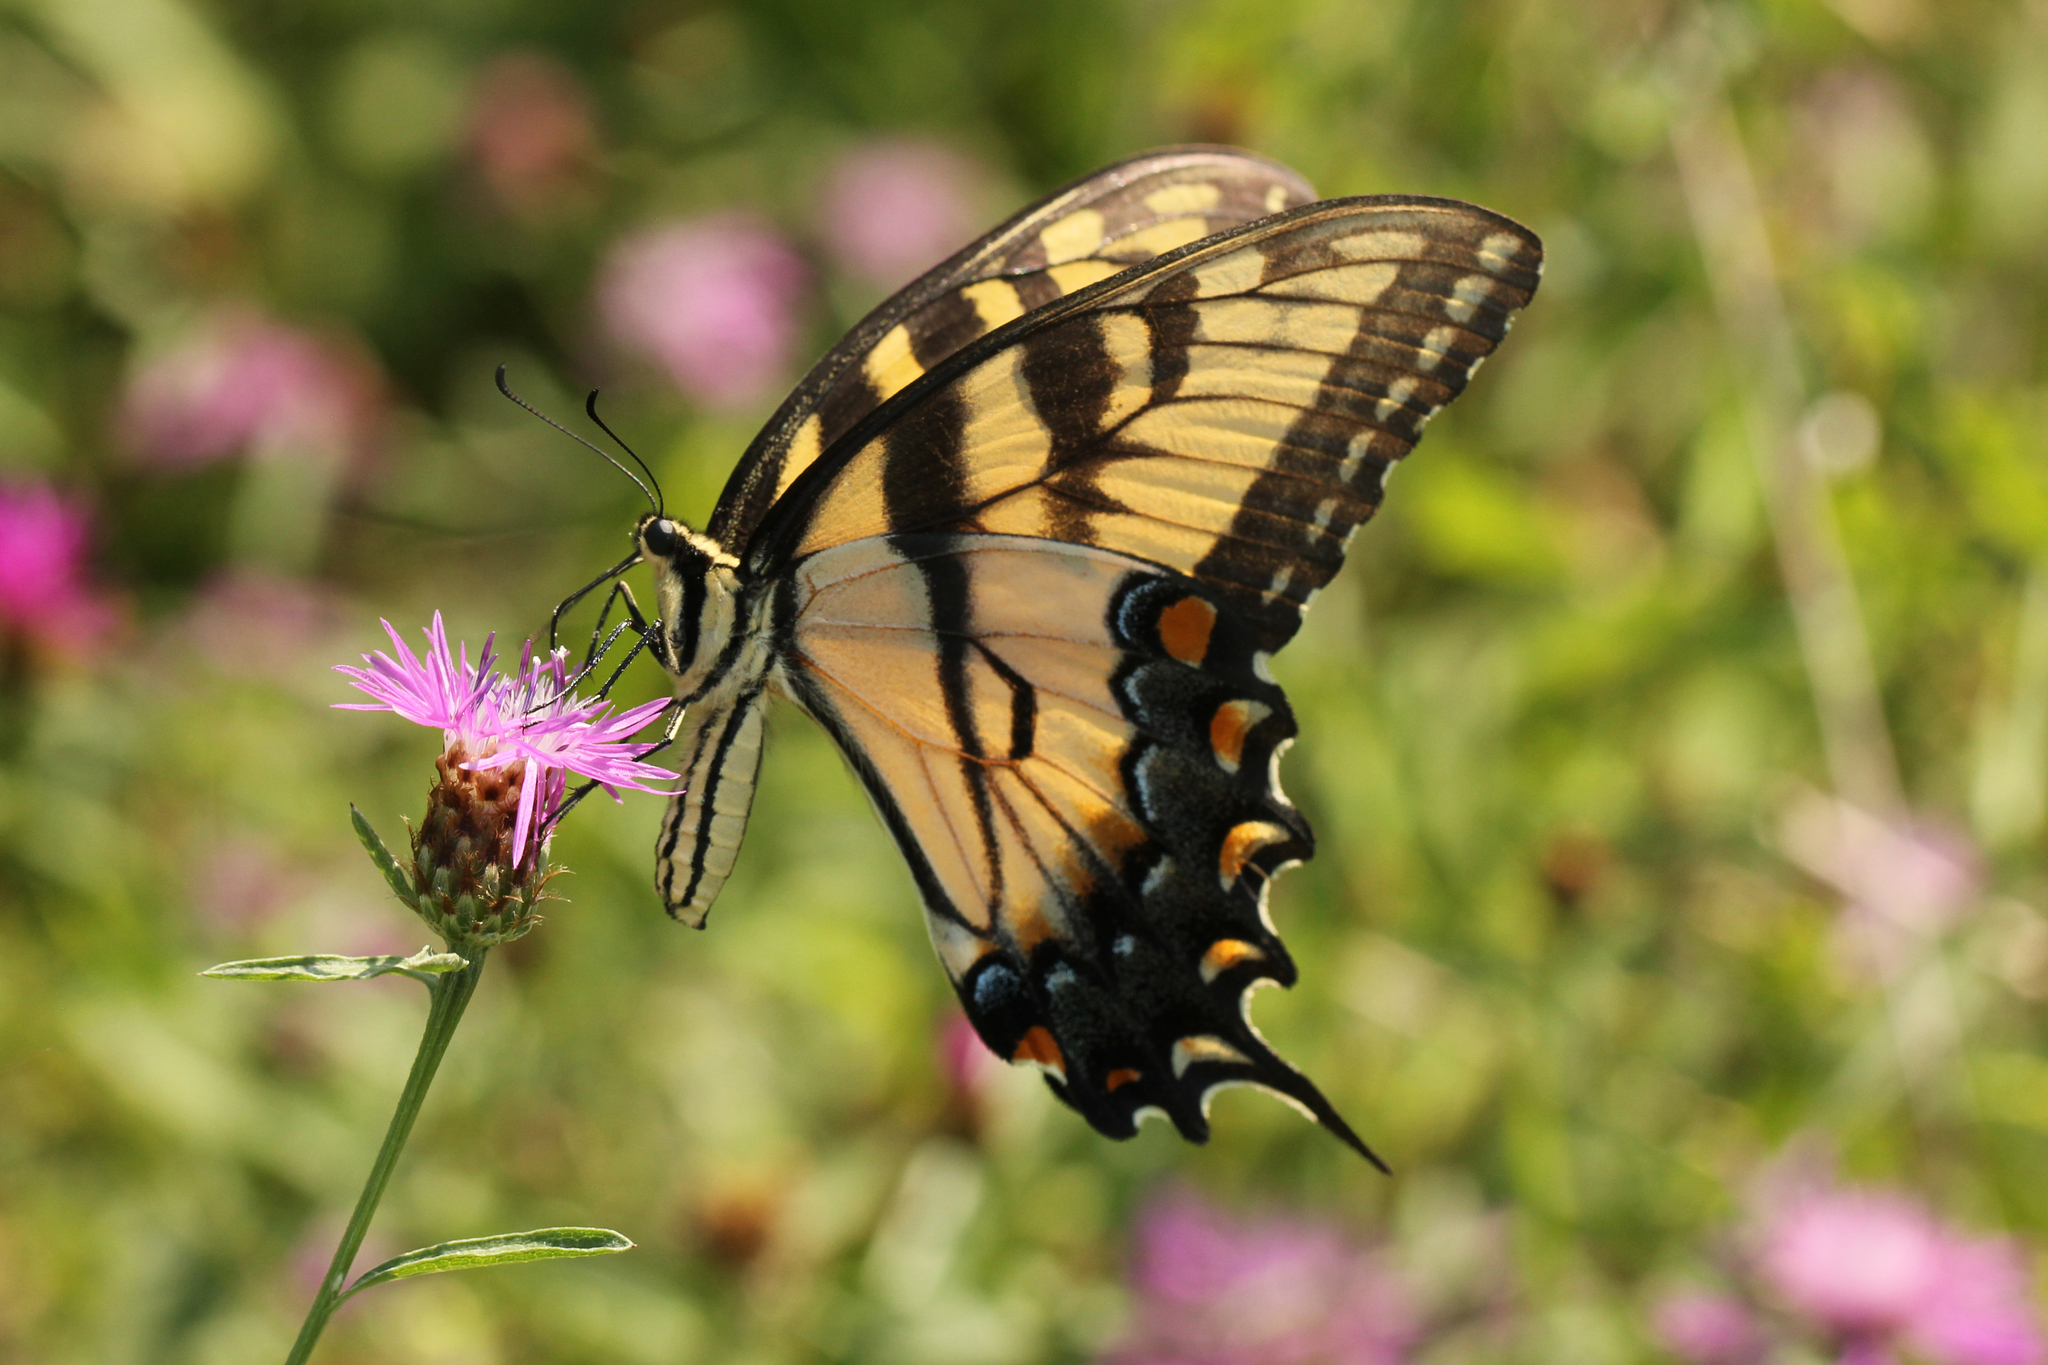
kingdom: Animalia
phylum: Arthropoda
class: Insecta
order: Lepidoptera
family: Papilionidae
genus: Papilio
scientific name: Papilio glaucus
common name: Tiger swallowtail
